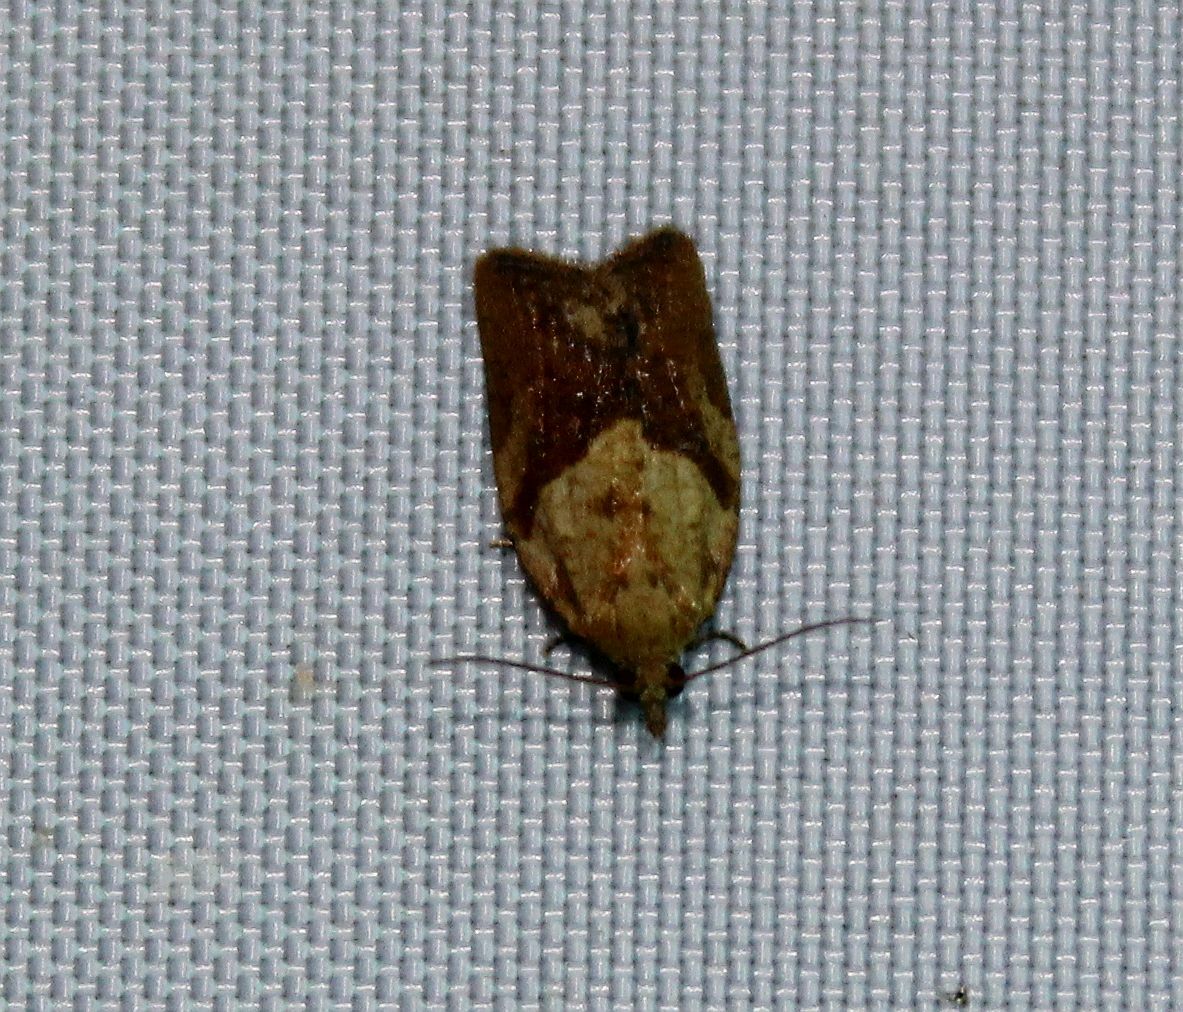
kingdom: Animalia
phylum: Arthropoda
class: Insecta
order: Lepidoptera
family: Tortricidae
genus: Epiphyas
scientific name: Epiphyas postvittana
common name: Light brown apple moth
